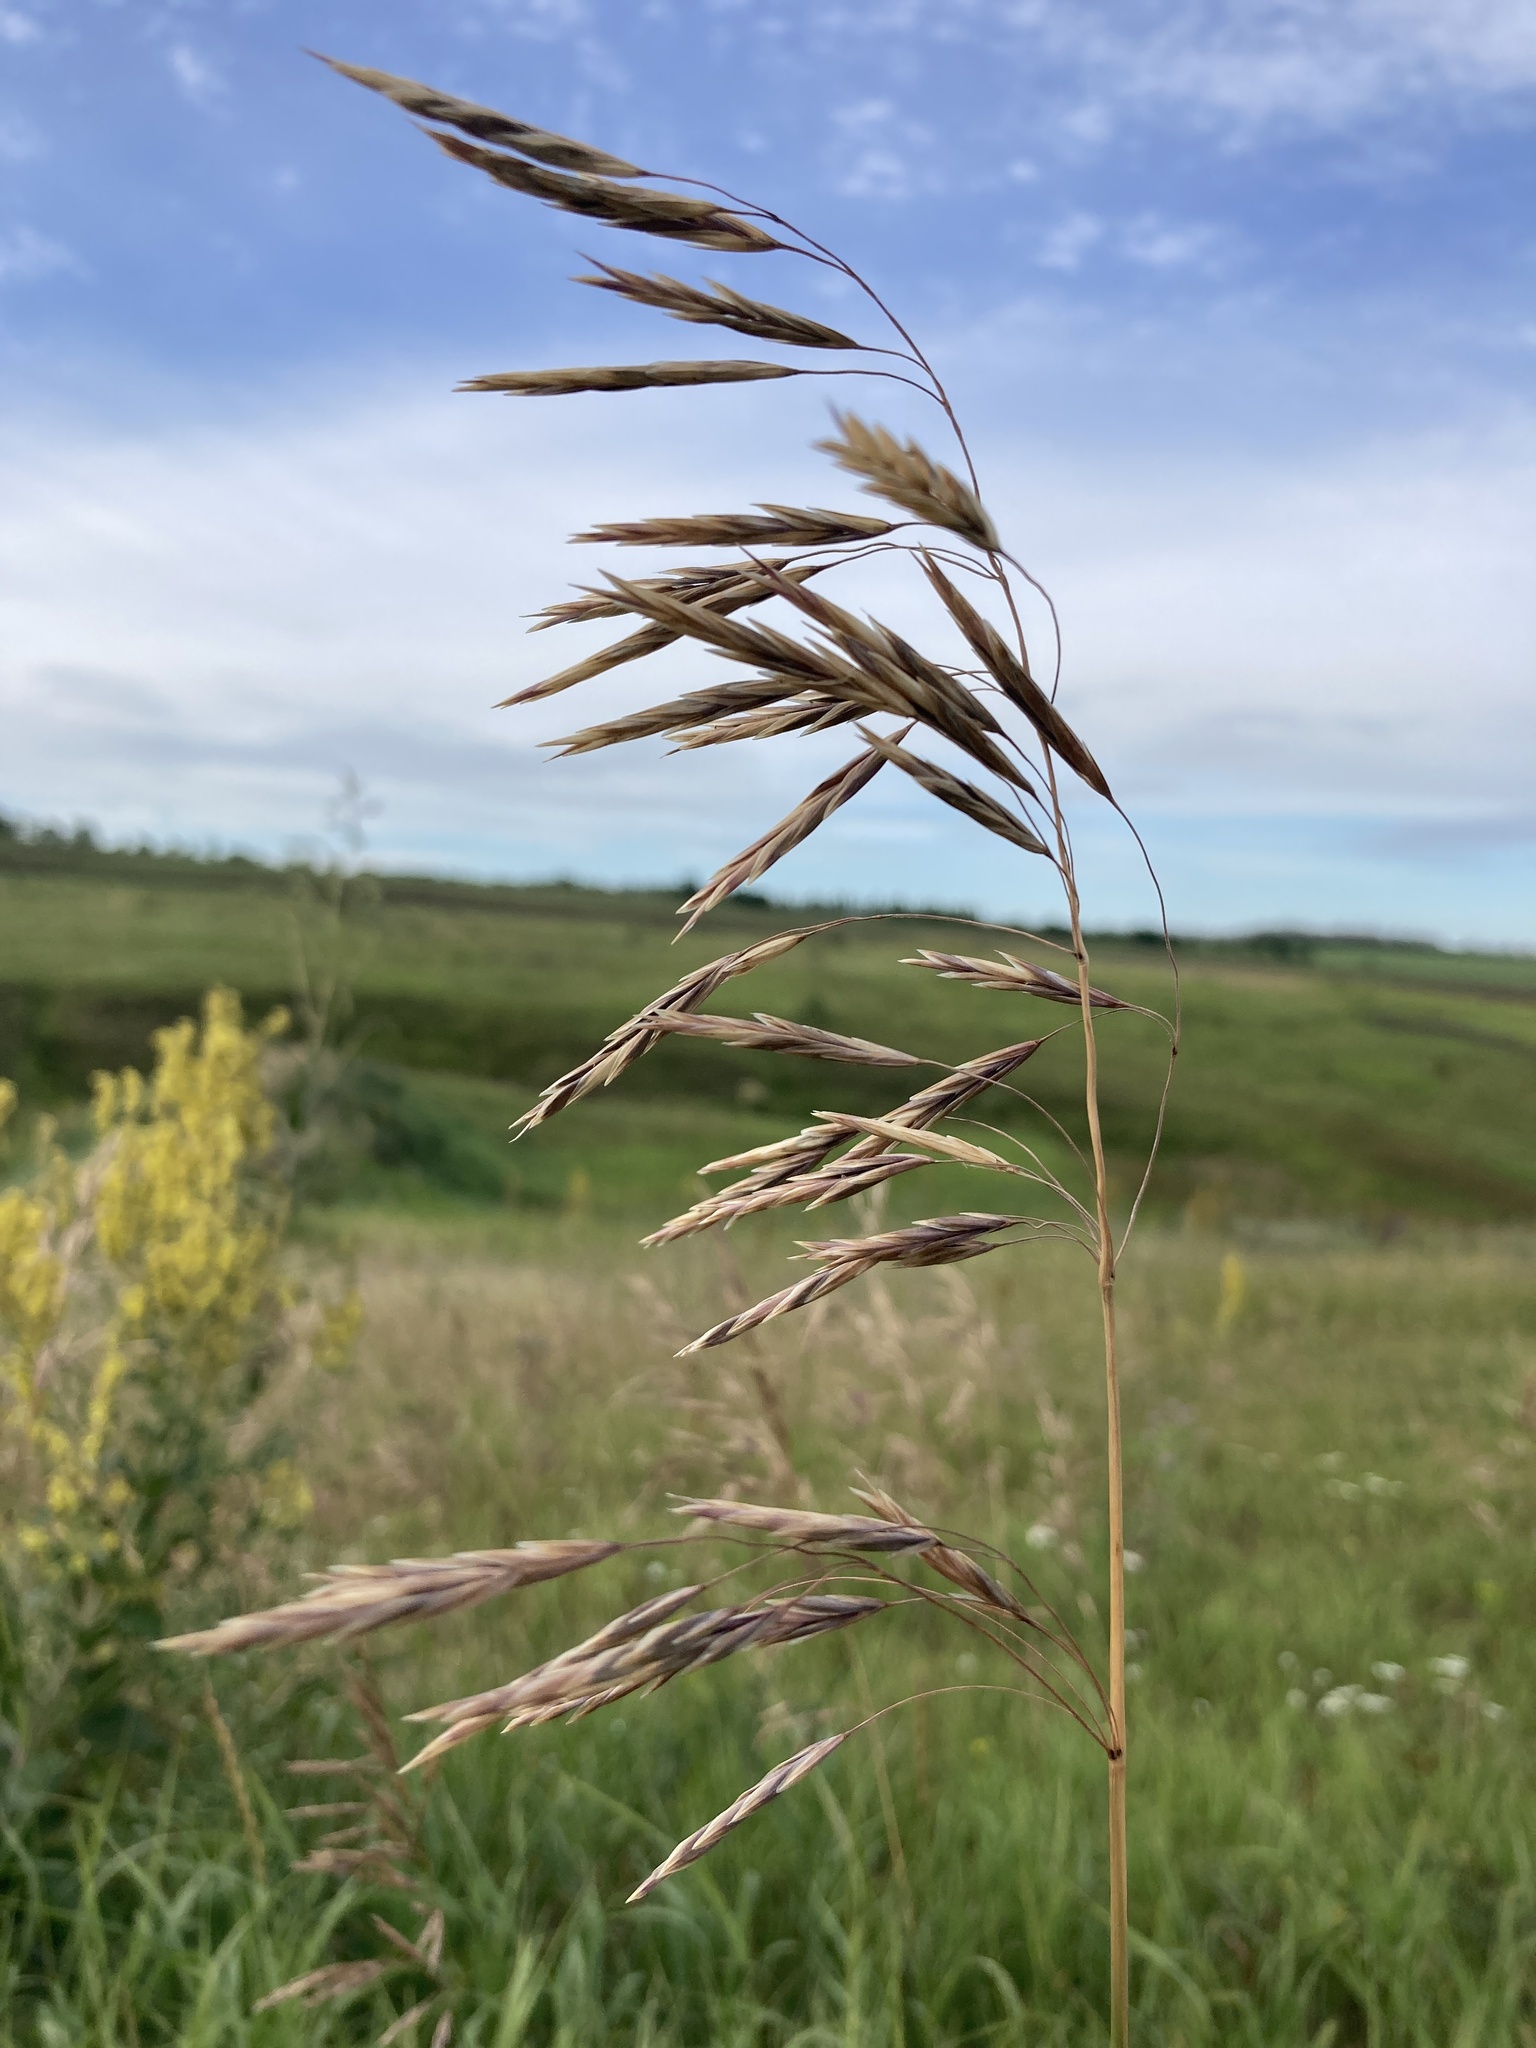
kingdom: Plantae
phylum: Tracheophyta
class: Liliopsida
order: Poales
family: Poaceae
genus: Bromus
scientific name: Bromus inermis
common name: Smooth brome
